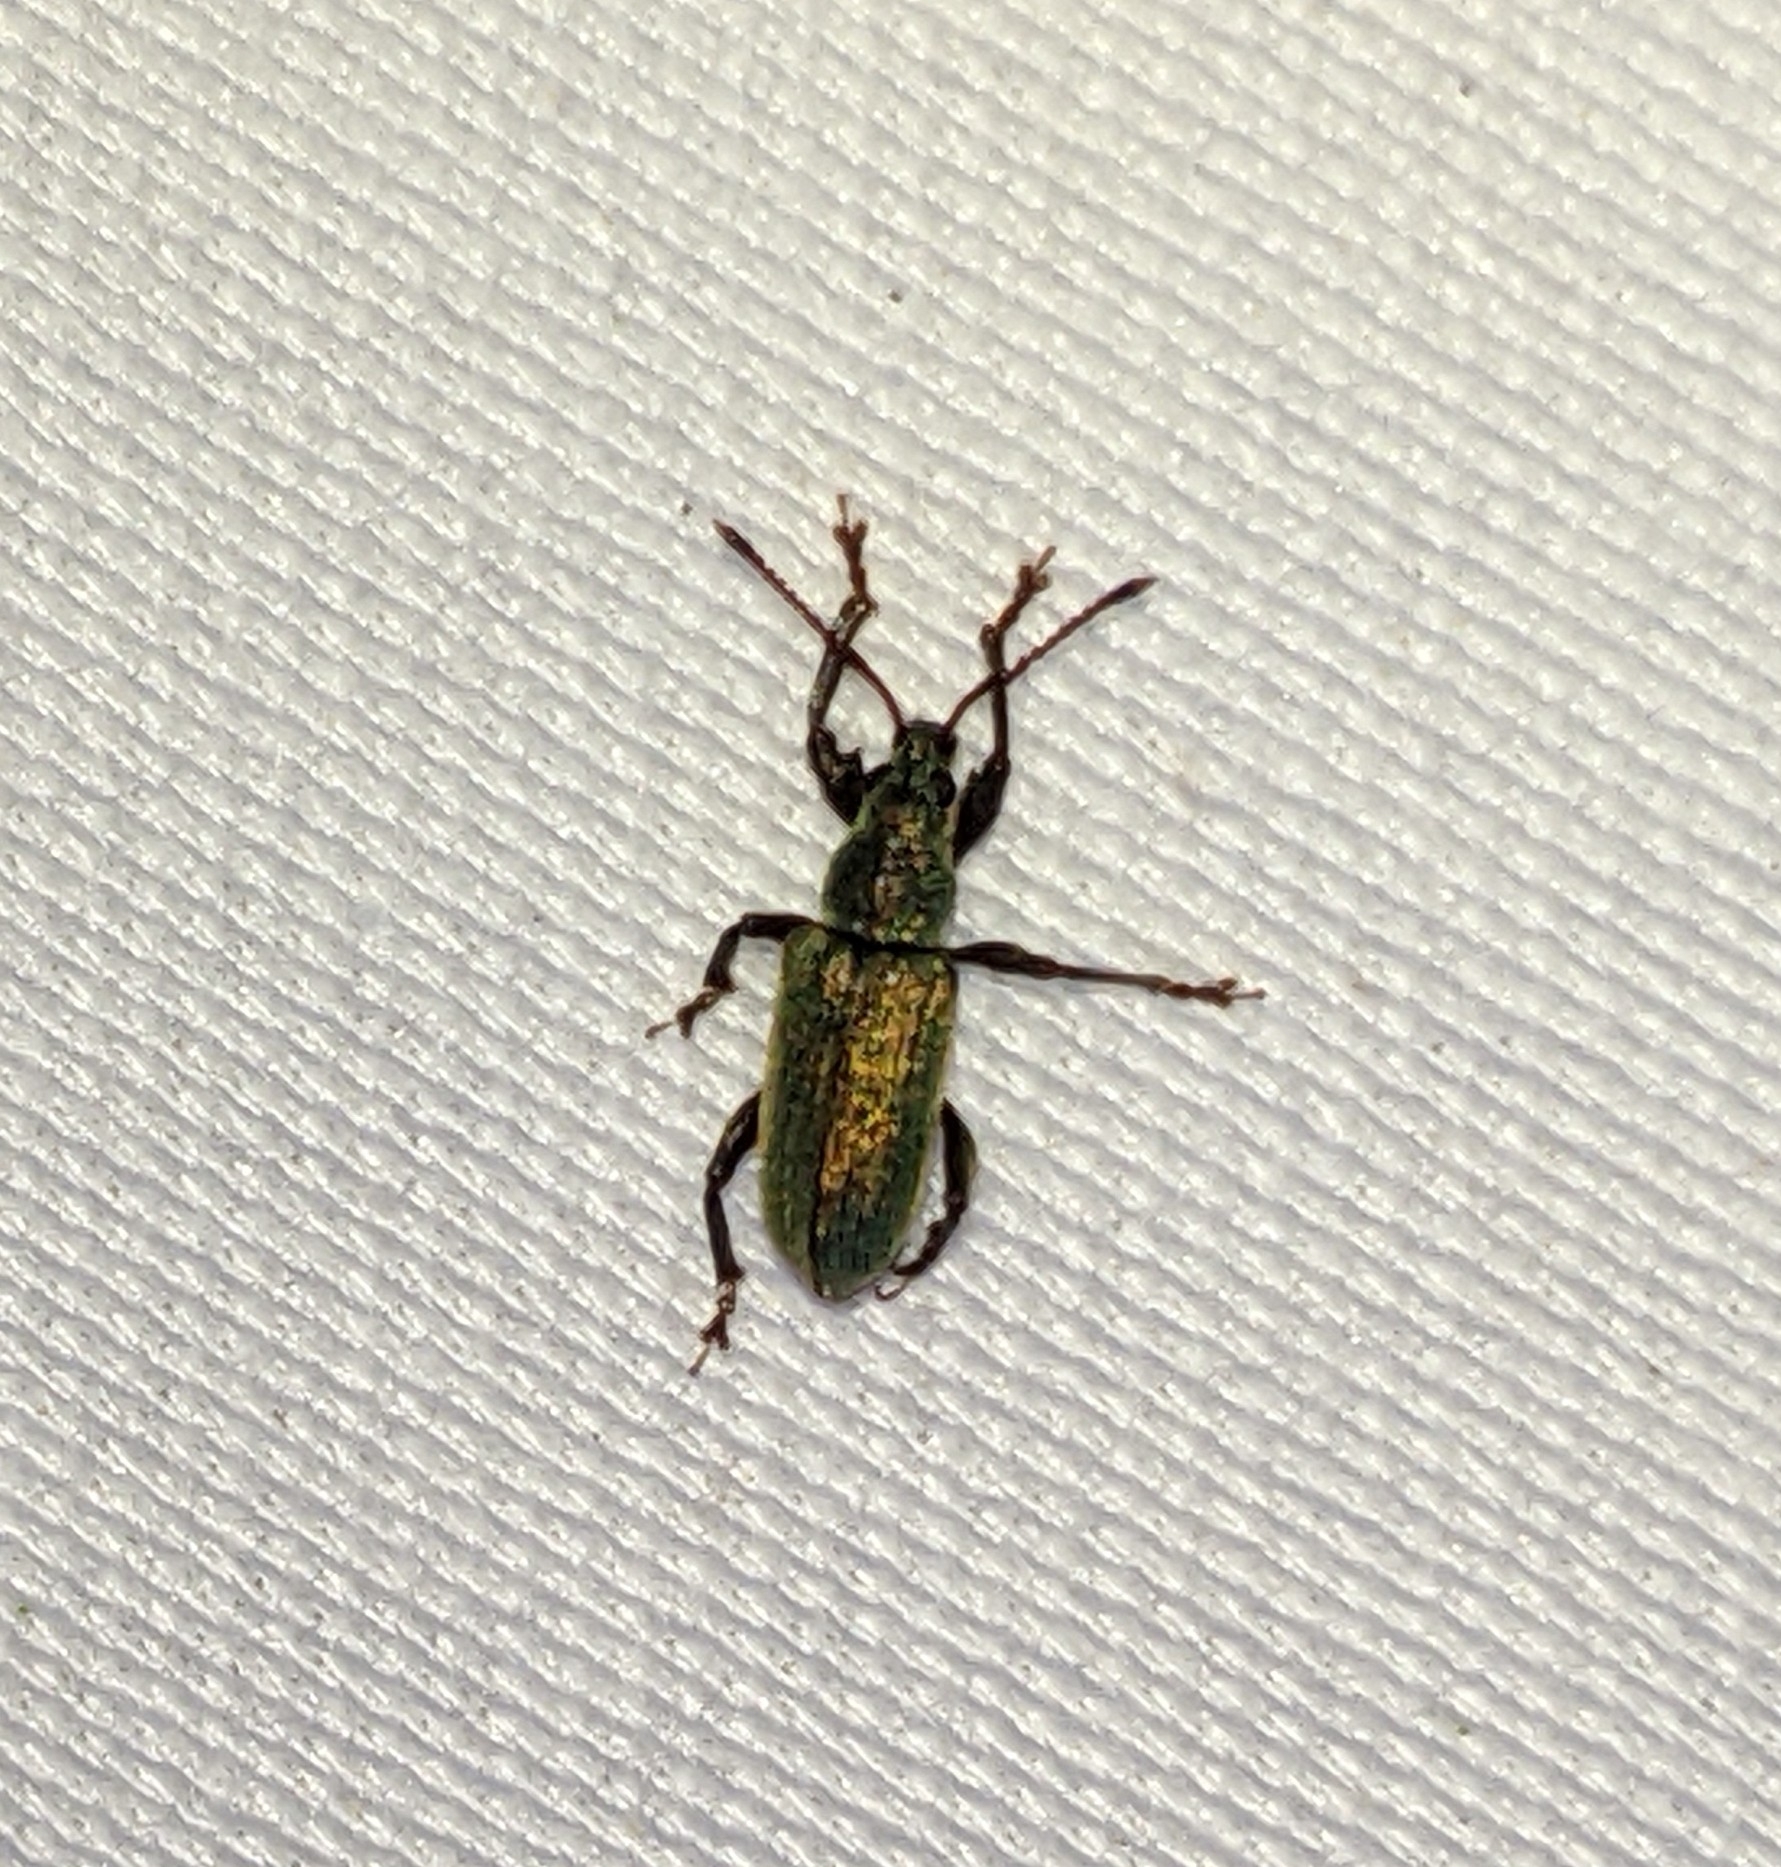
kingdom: Animalia
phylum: Arthropoda
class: Insecta
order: Coleoptera
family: Curculionidae
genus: Parascythopus
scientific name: Parascythopus intrusus
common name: Weevil
